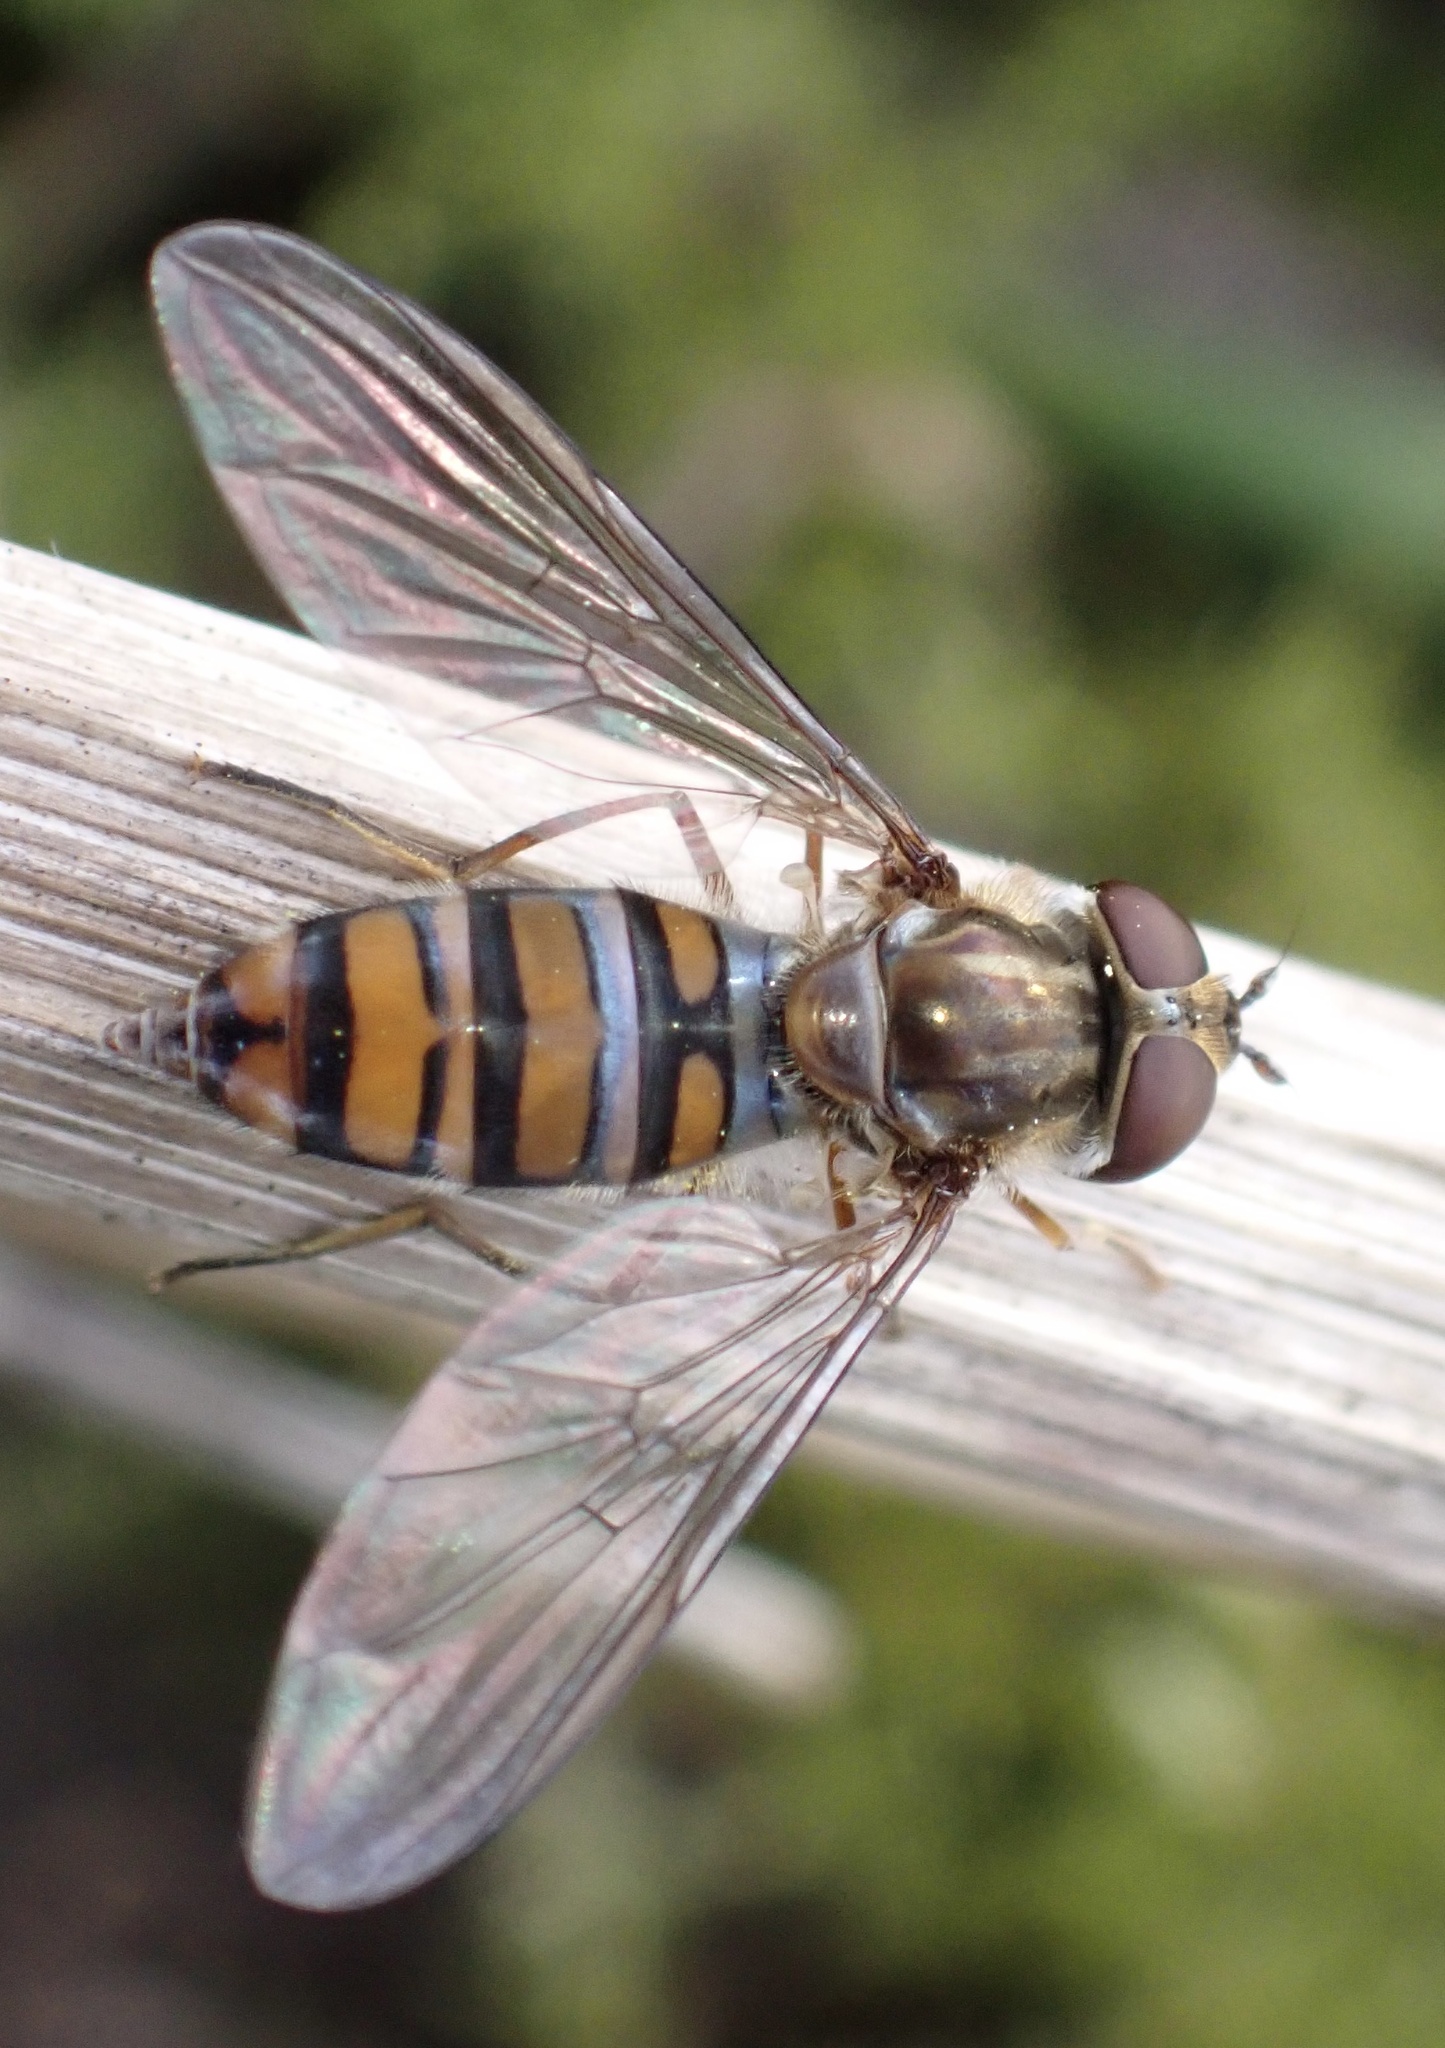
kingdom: Animalia
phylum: Arthropoda
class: Insecta
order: Diptera
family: Syrphidae
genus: Episyrphus
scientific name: Episyrphus balteatus
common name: Marmalade hoverfly
